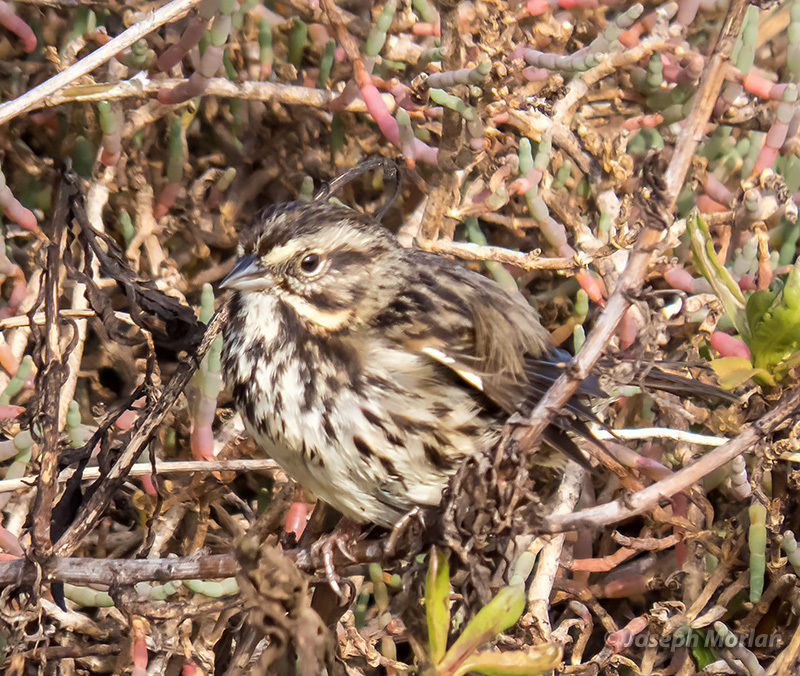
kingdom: Animalia
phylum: Chordata
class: Aves
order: Passeriformes
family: Passerellidae
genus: Melospiza
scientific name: Melospiza melodia
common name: Song sparrow
